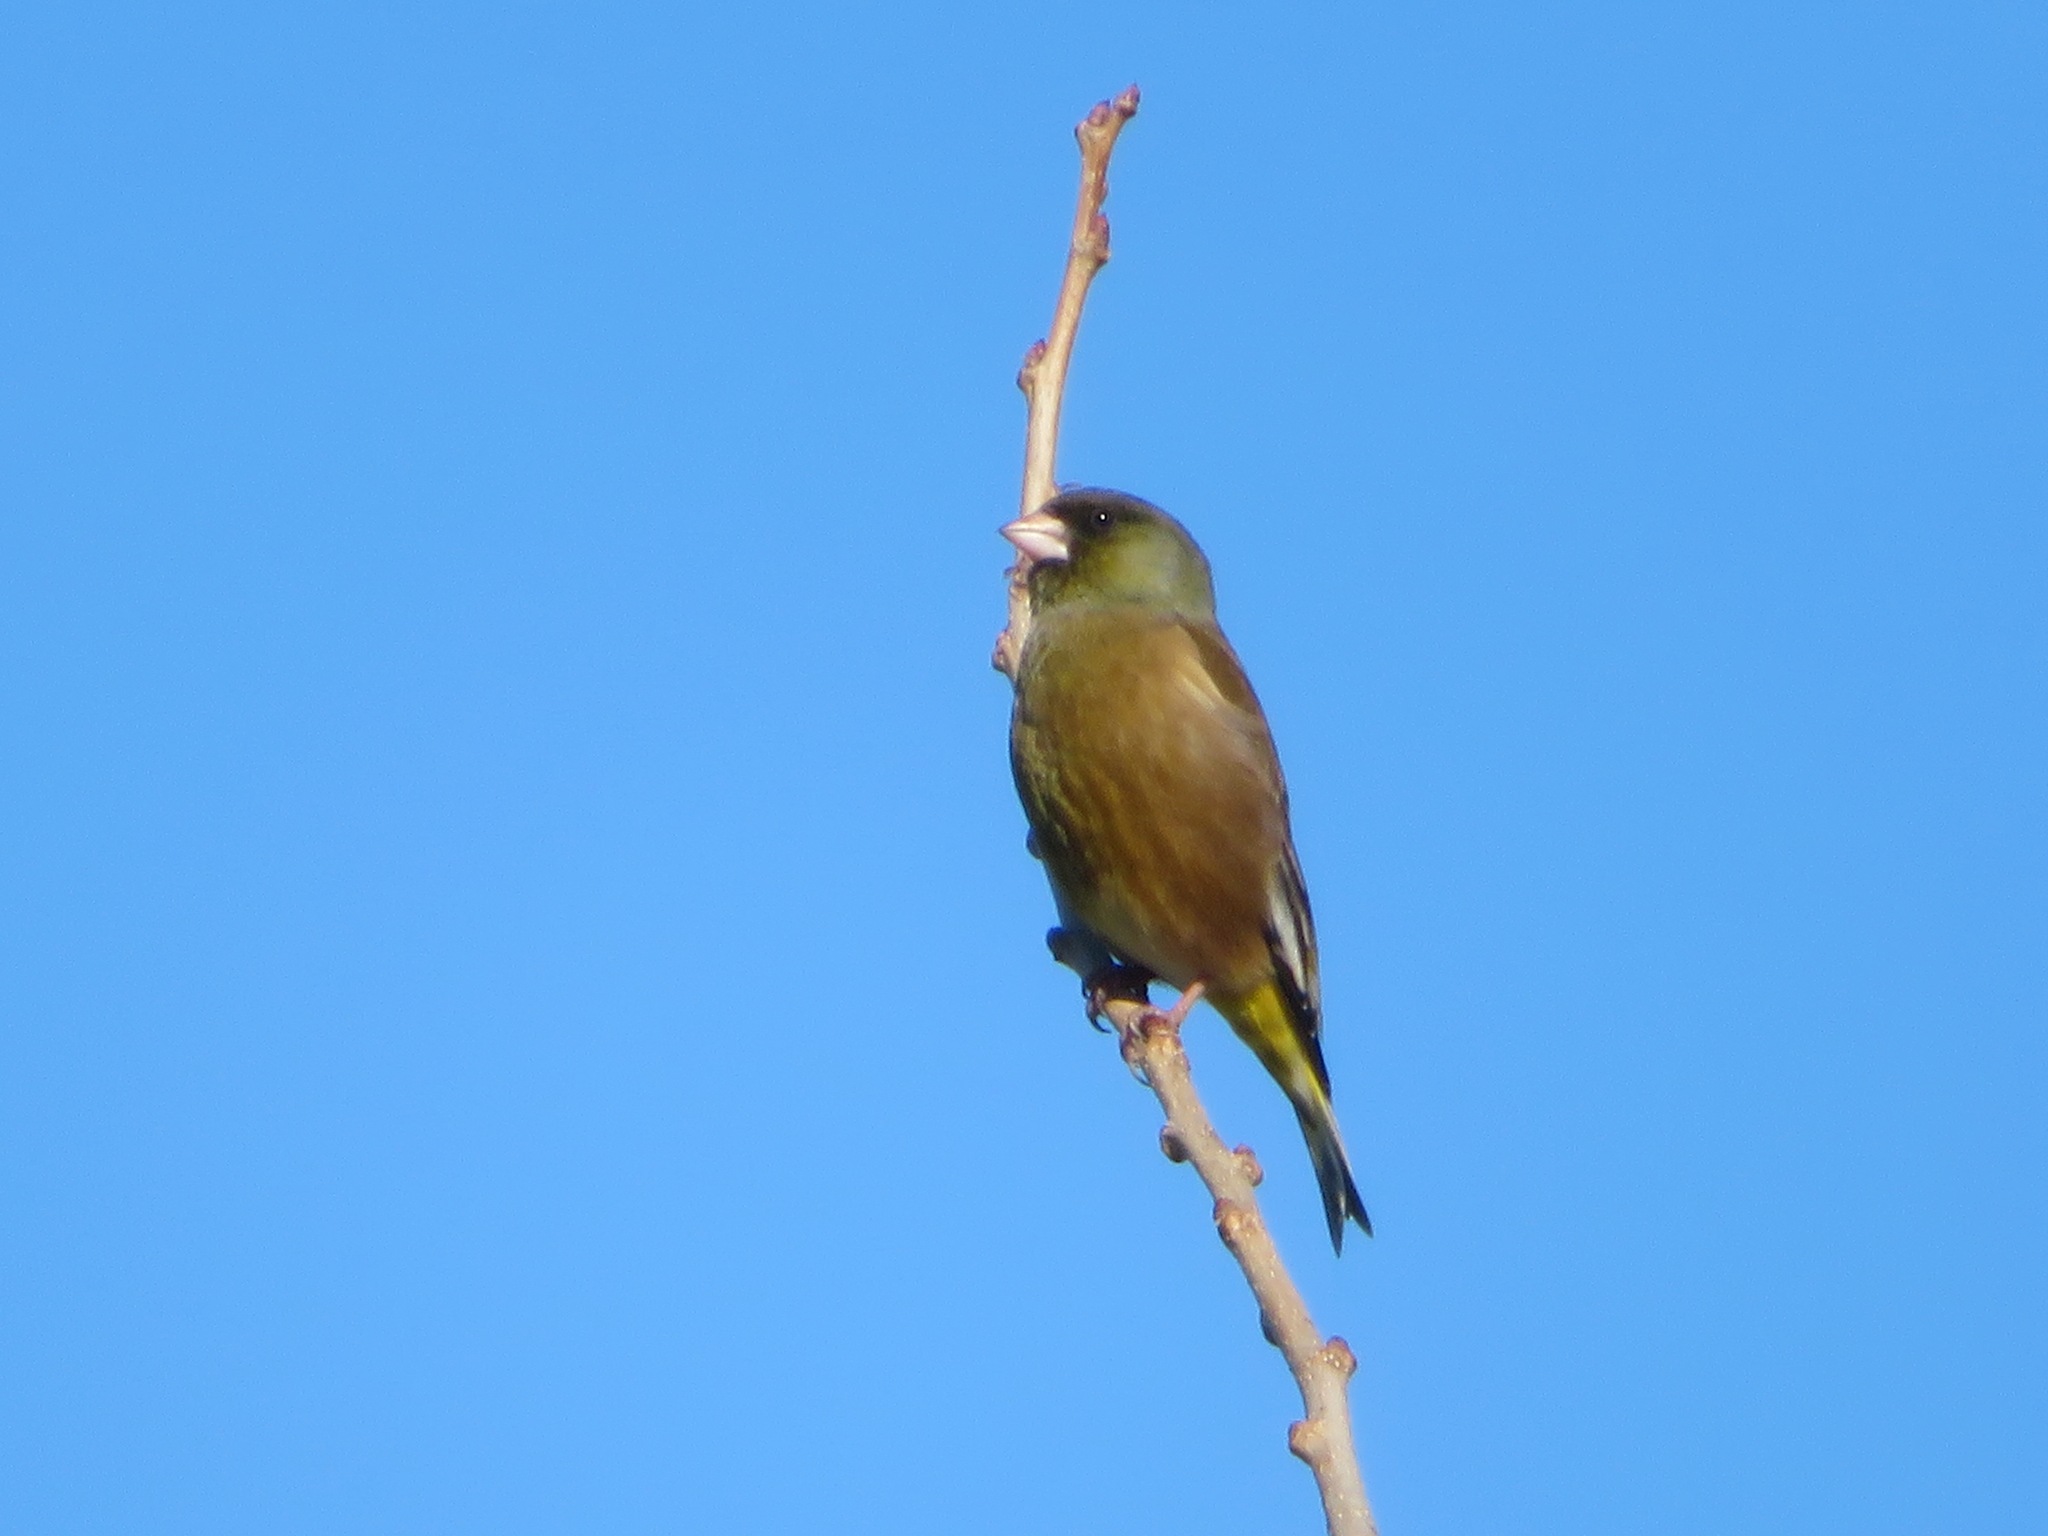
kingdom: Plantae
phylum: Tracheophyta
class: Liliopsida
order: Poales
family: Poaceae
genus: Chloris
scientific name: Chloris sinica
